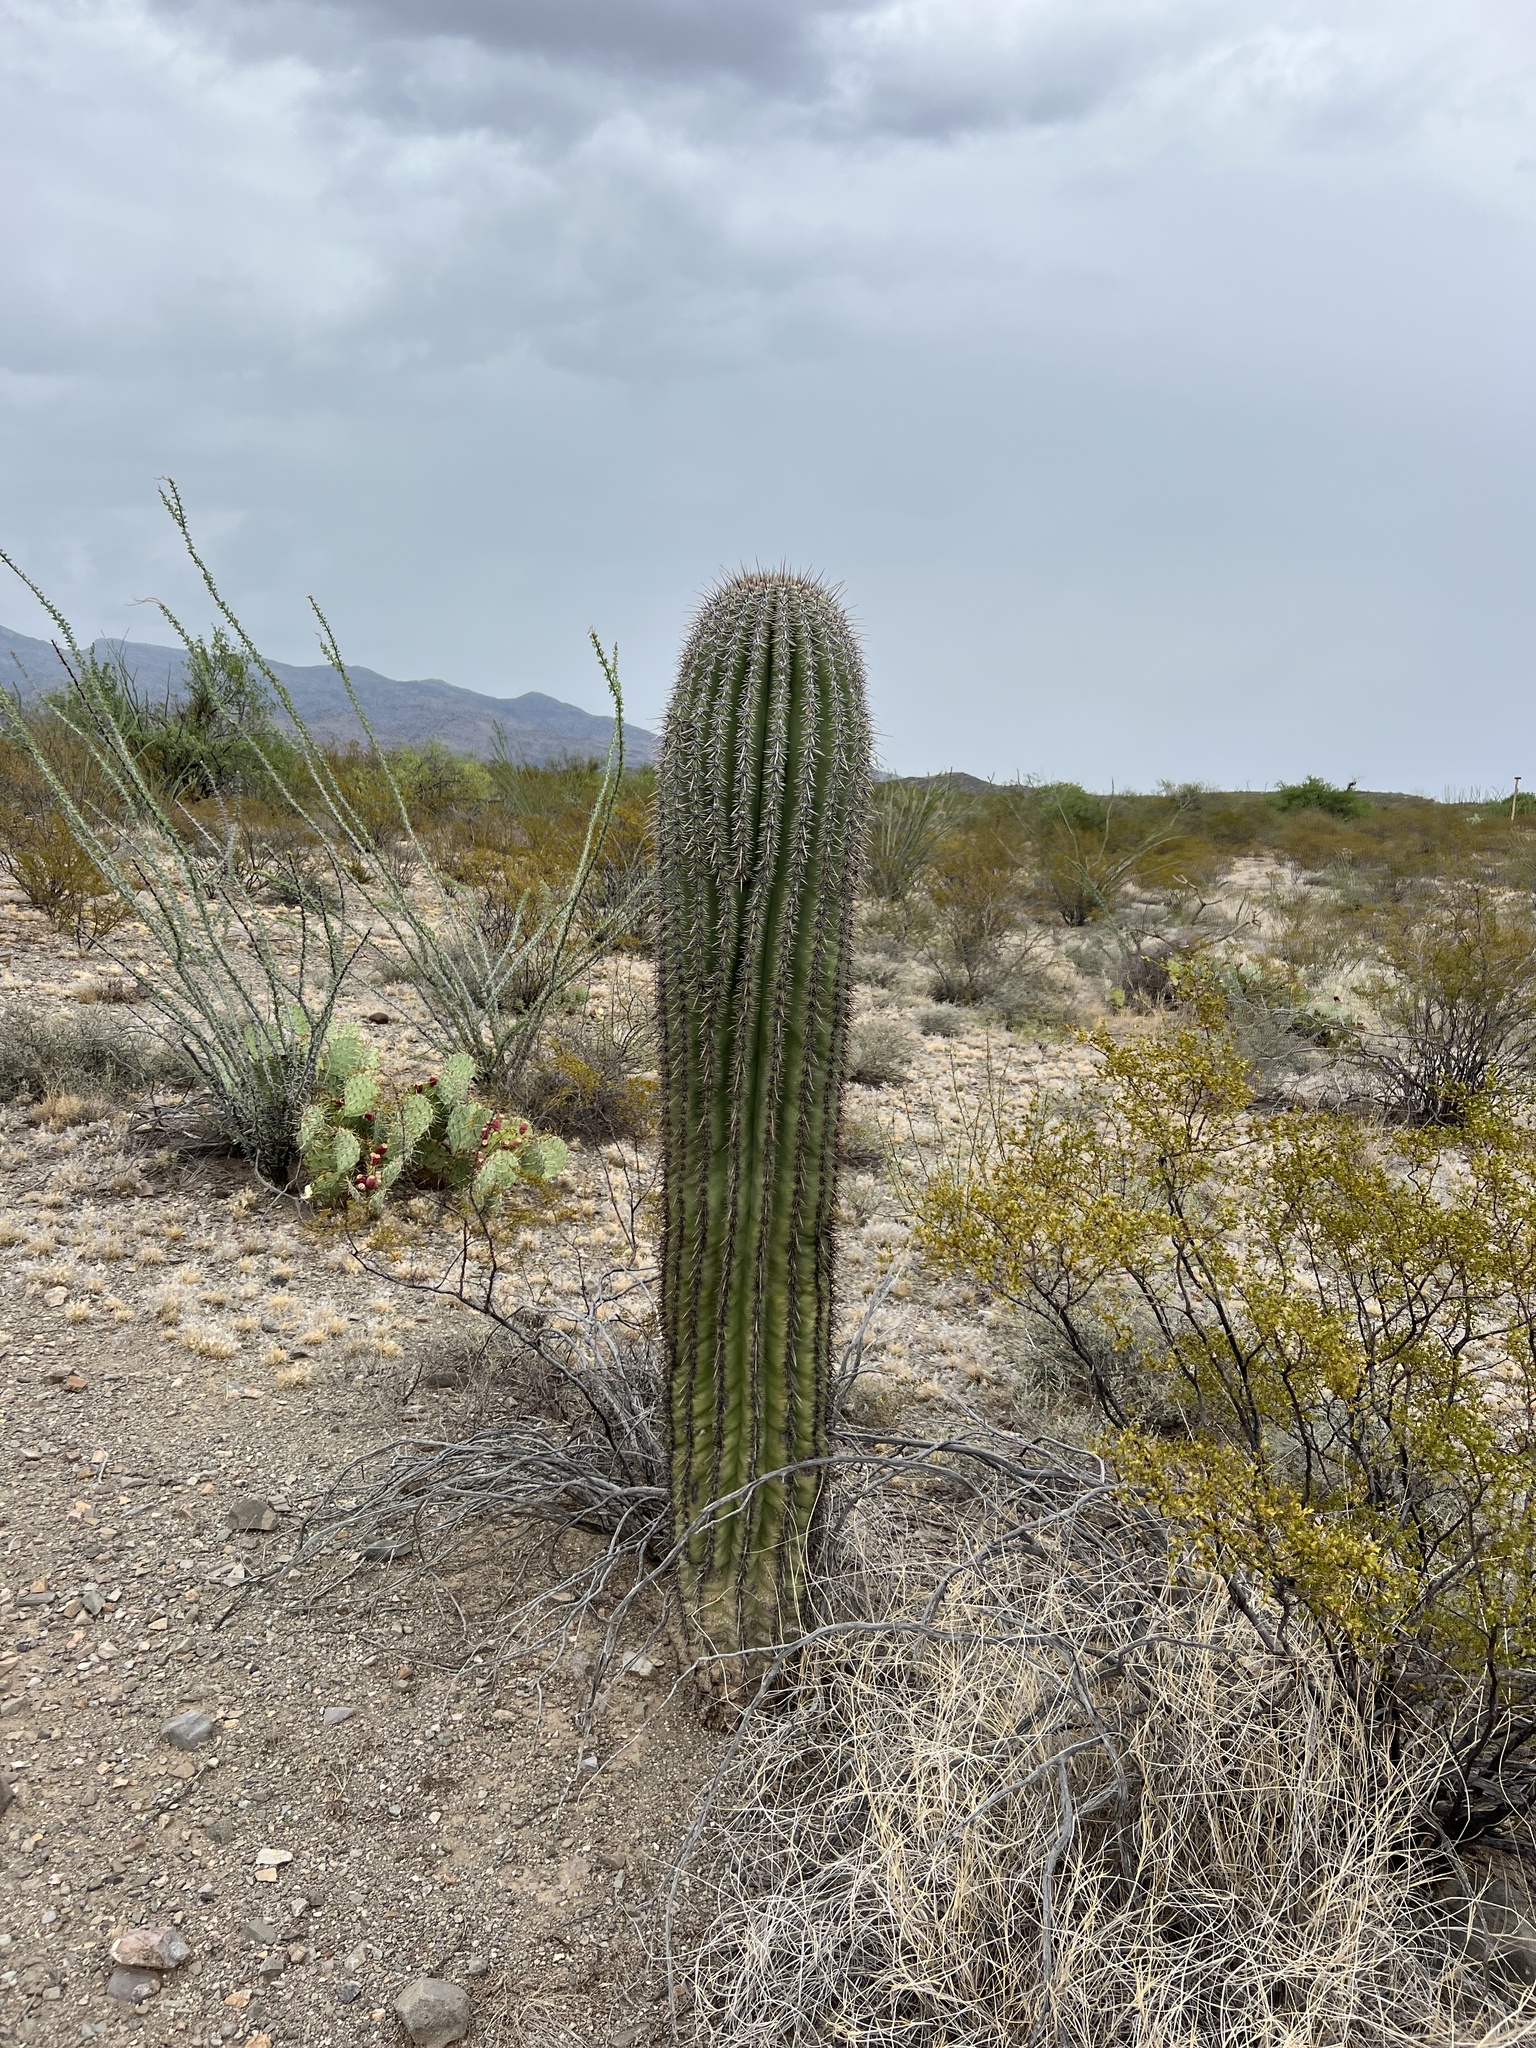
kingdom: Plantae
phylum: Tracheophyta
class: Magnoliopsida
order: Caryophyllales
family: Cactaceae
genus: Carnegiea
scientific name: Carnegiea gigantea
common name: Saguaro
